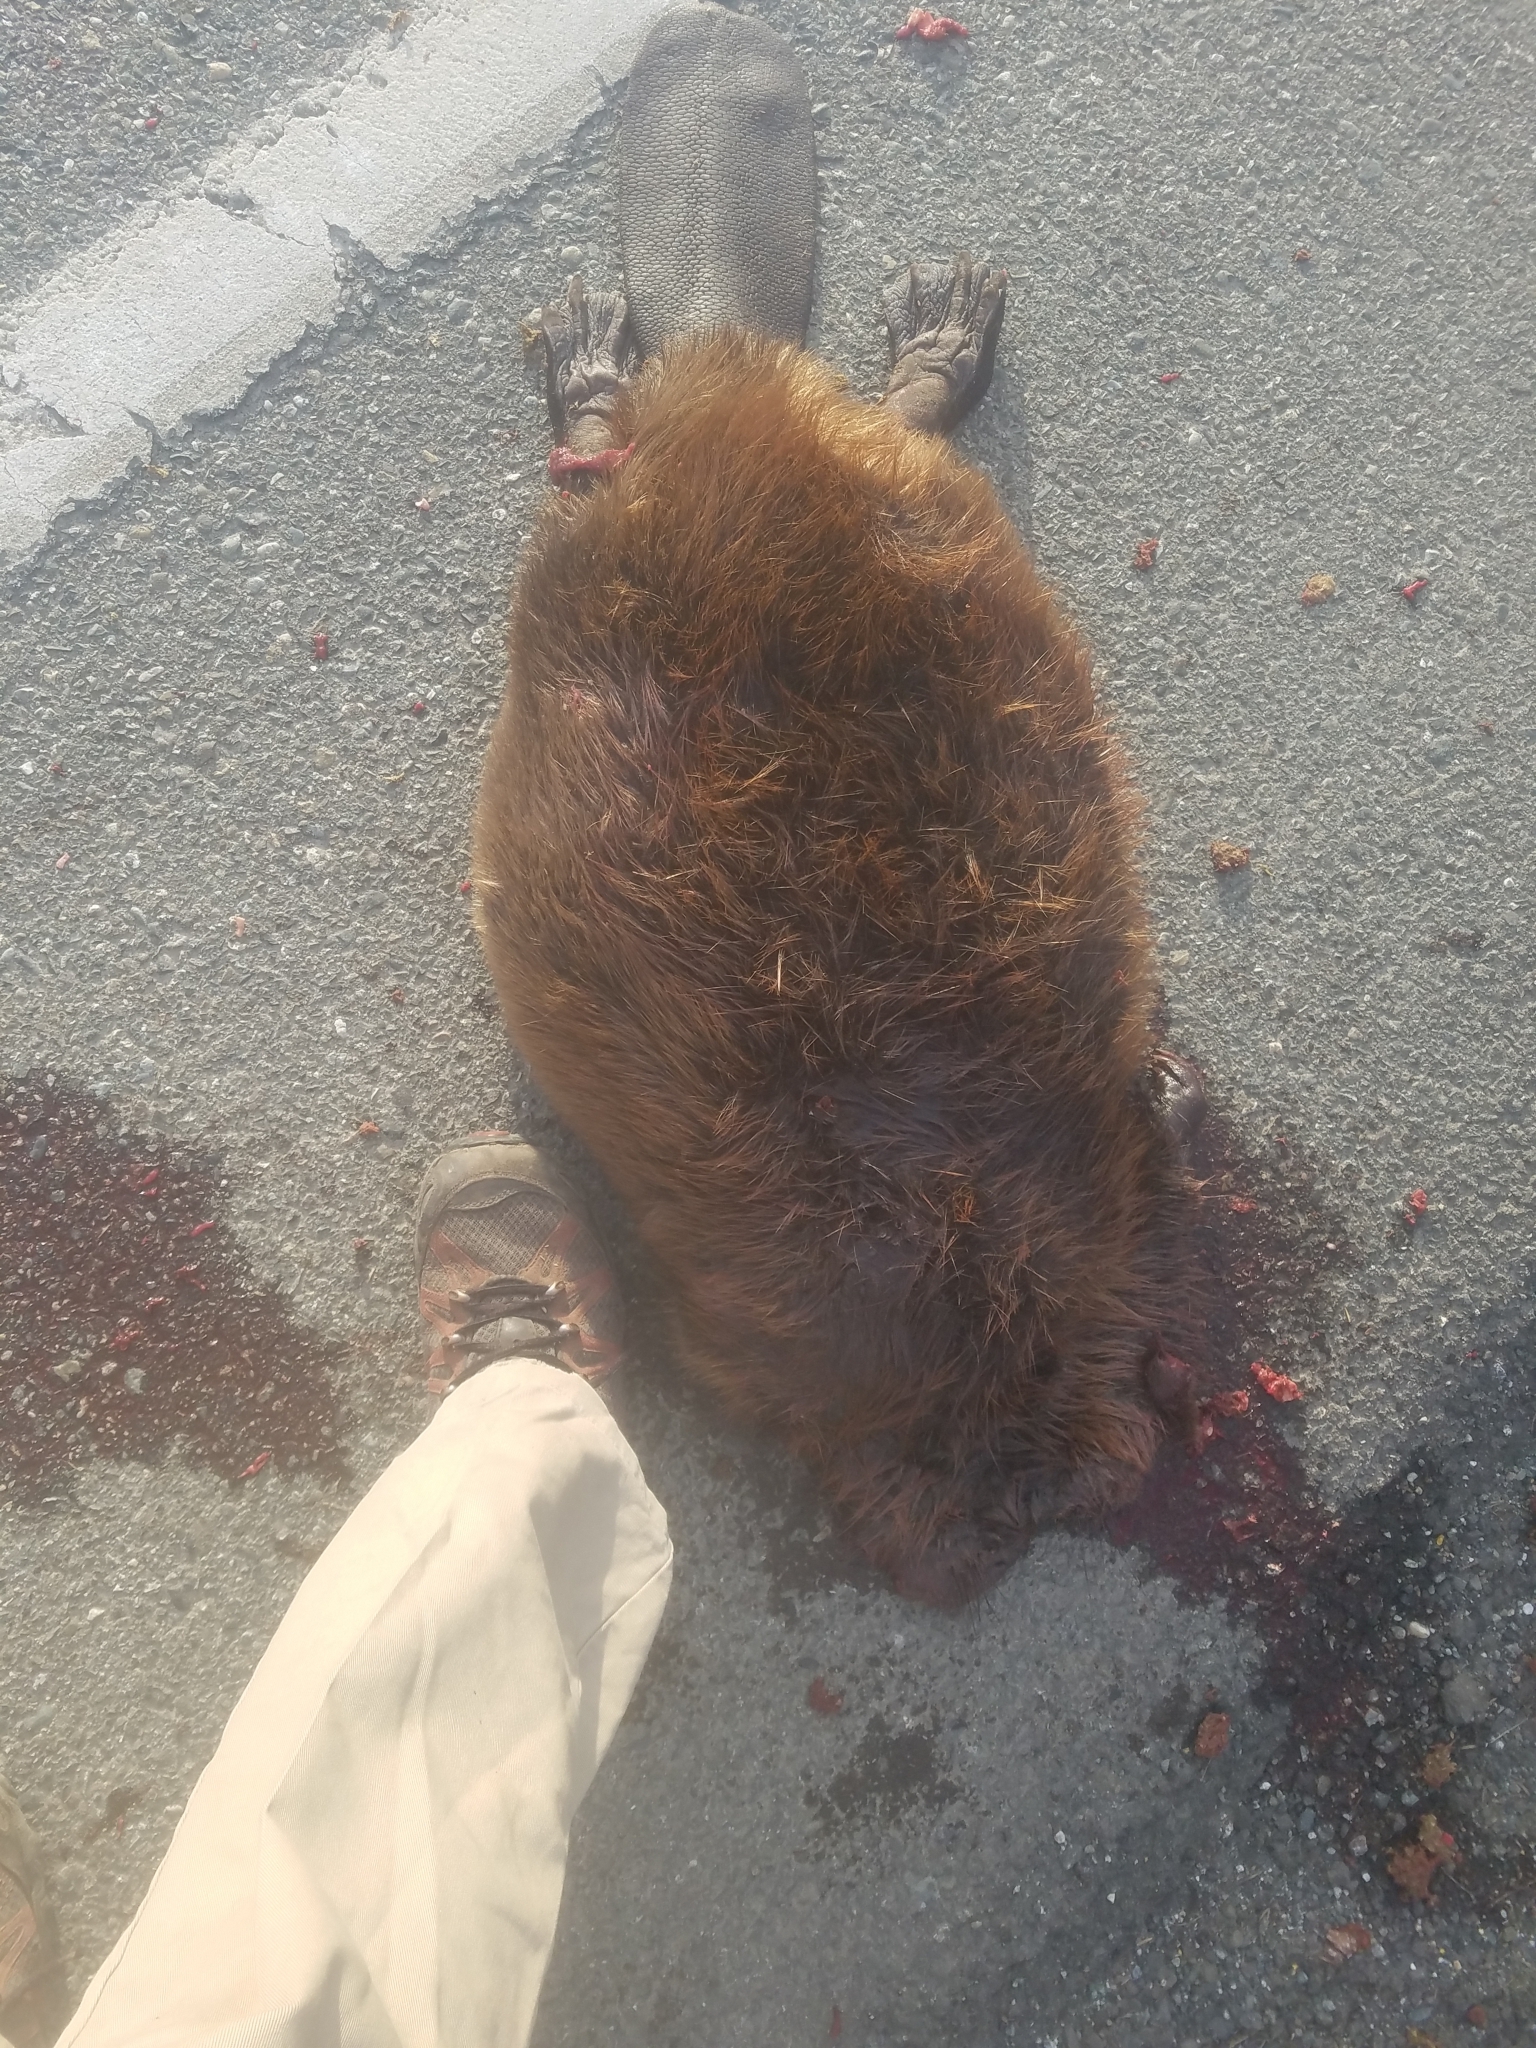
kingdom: Animalia
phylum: Chordata
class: Mammalia
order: Rodentia
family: Castoridae
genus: Castor
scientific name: Castor canadensis
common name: American beaver
